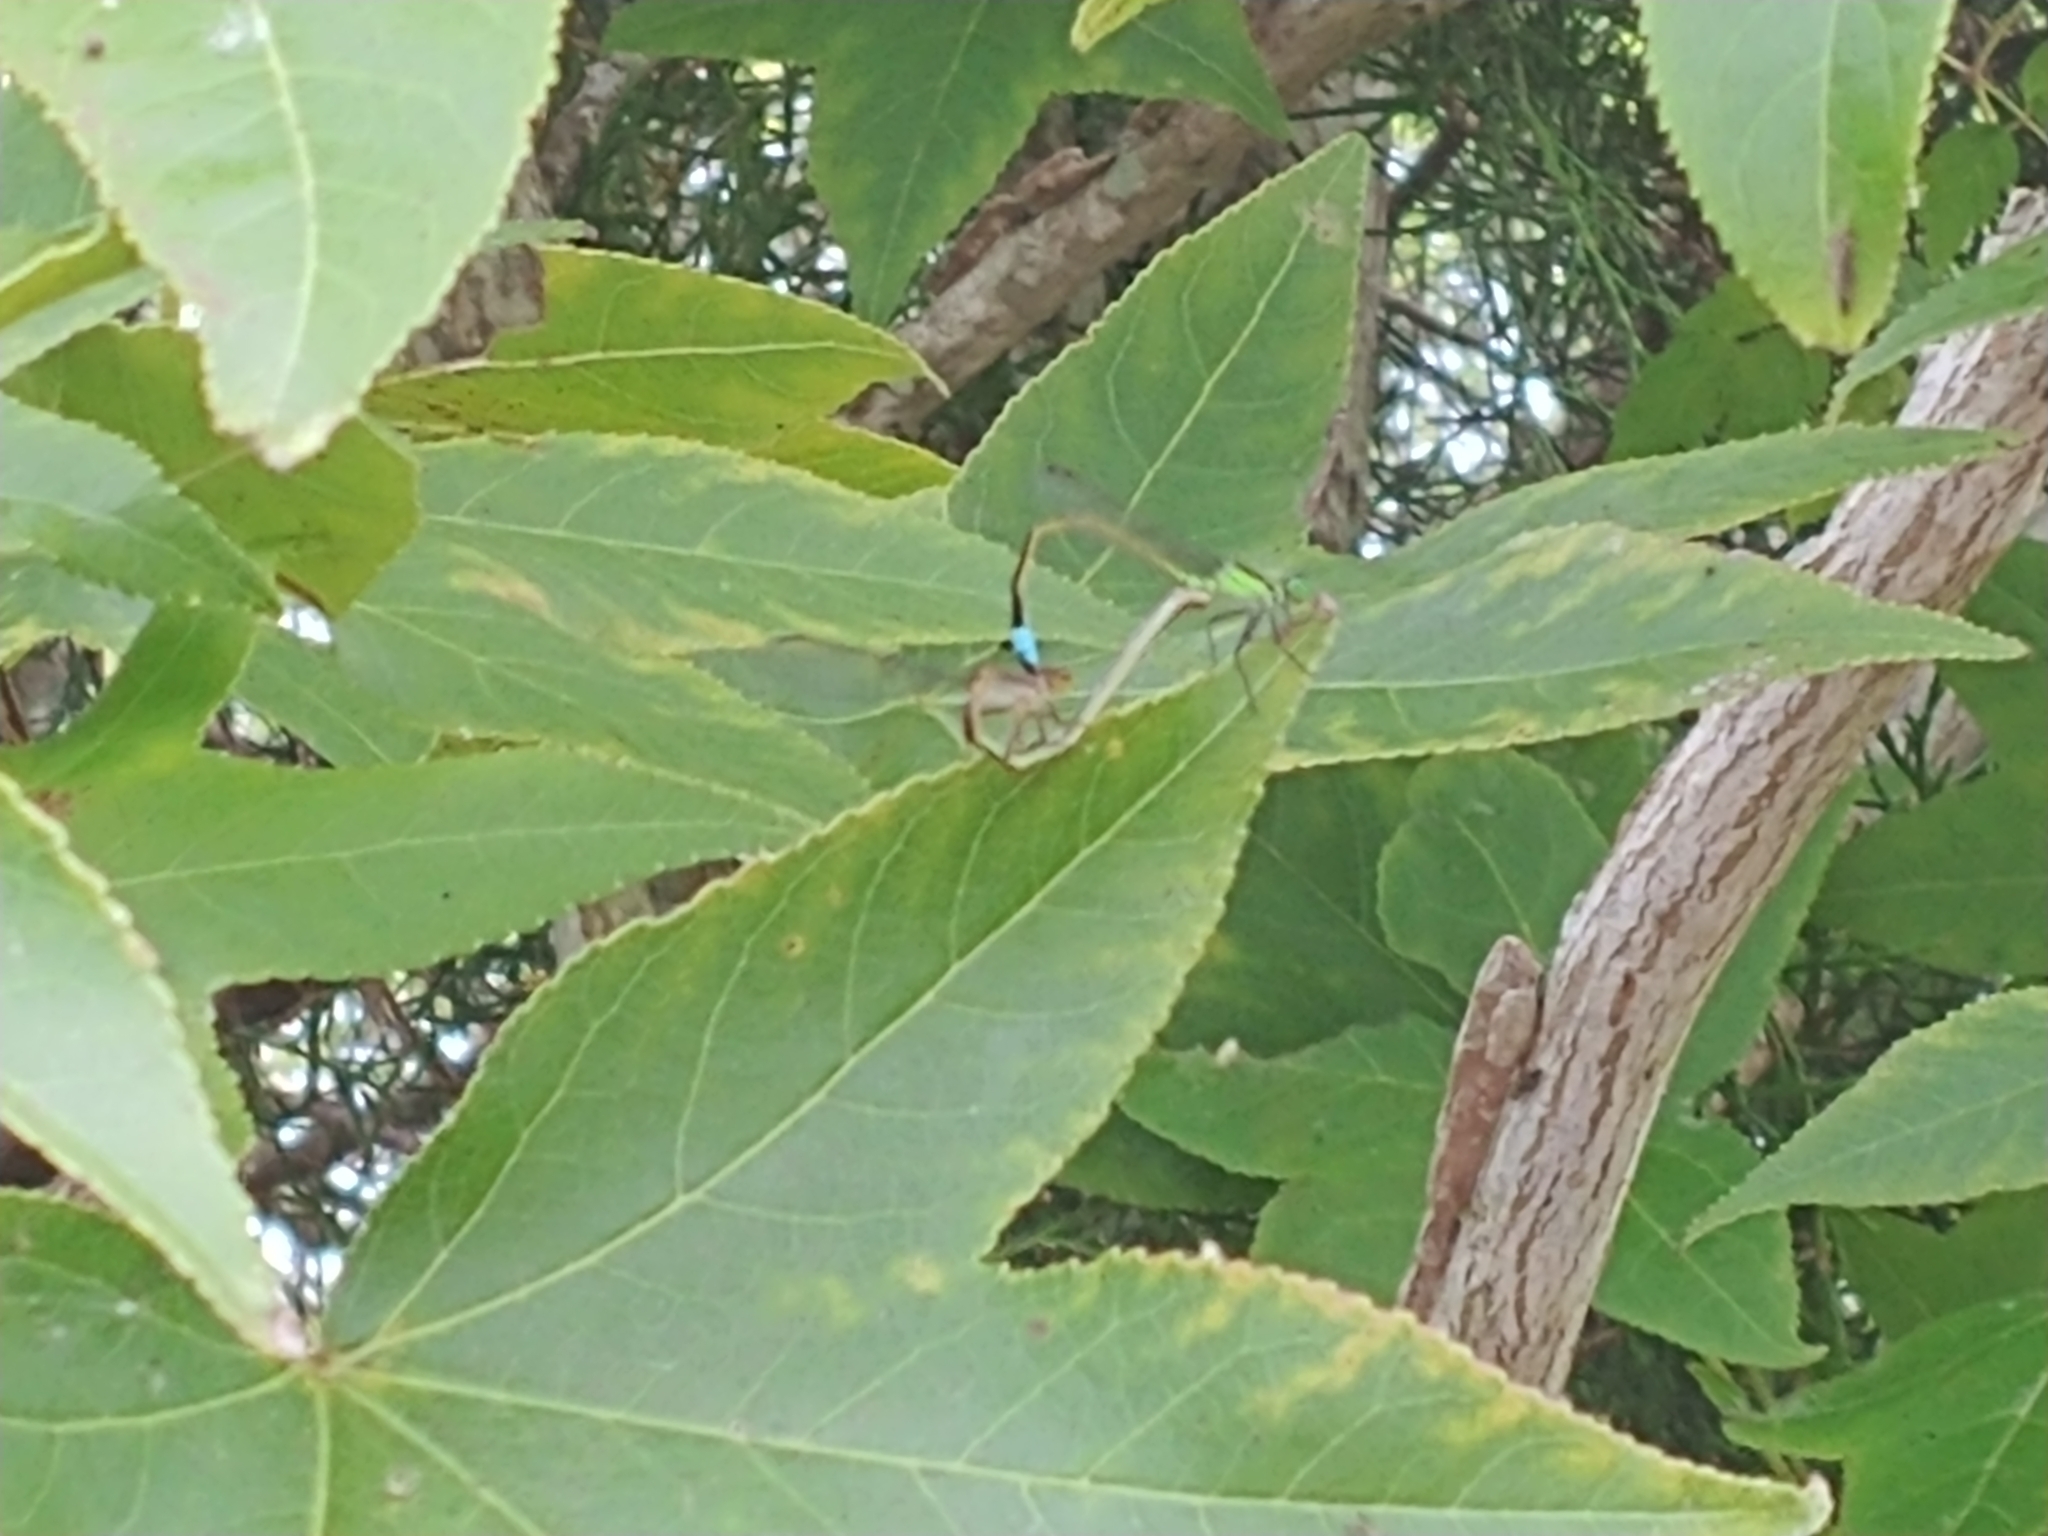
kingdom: Animalia
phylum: Arthropoda
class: Insecta
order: Odonata
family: Coenagrionidae
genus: Ischnura
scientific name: Ischnura ramburii
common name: Rambur's forktail
